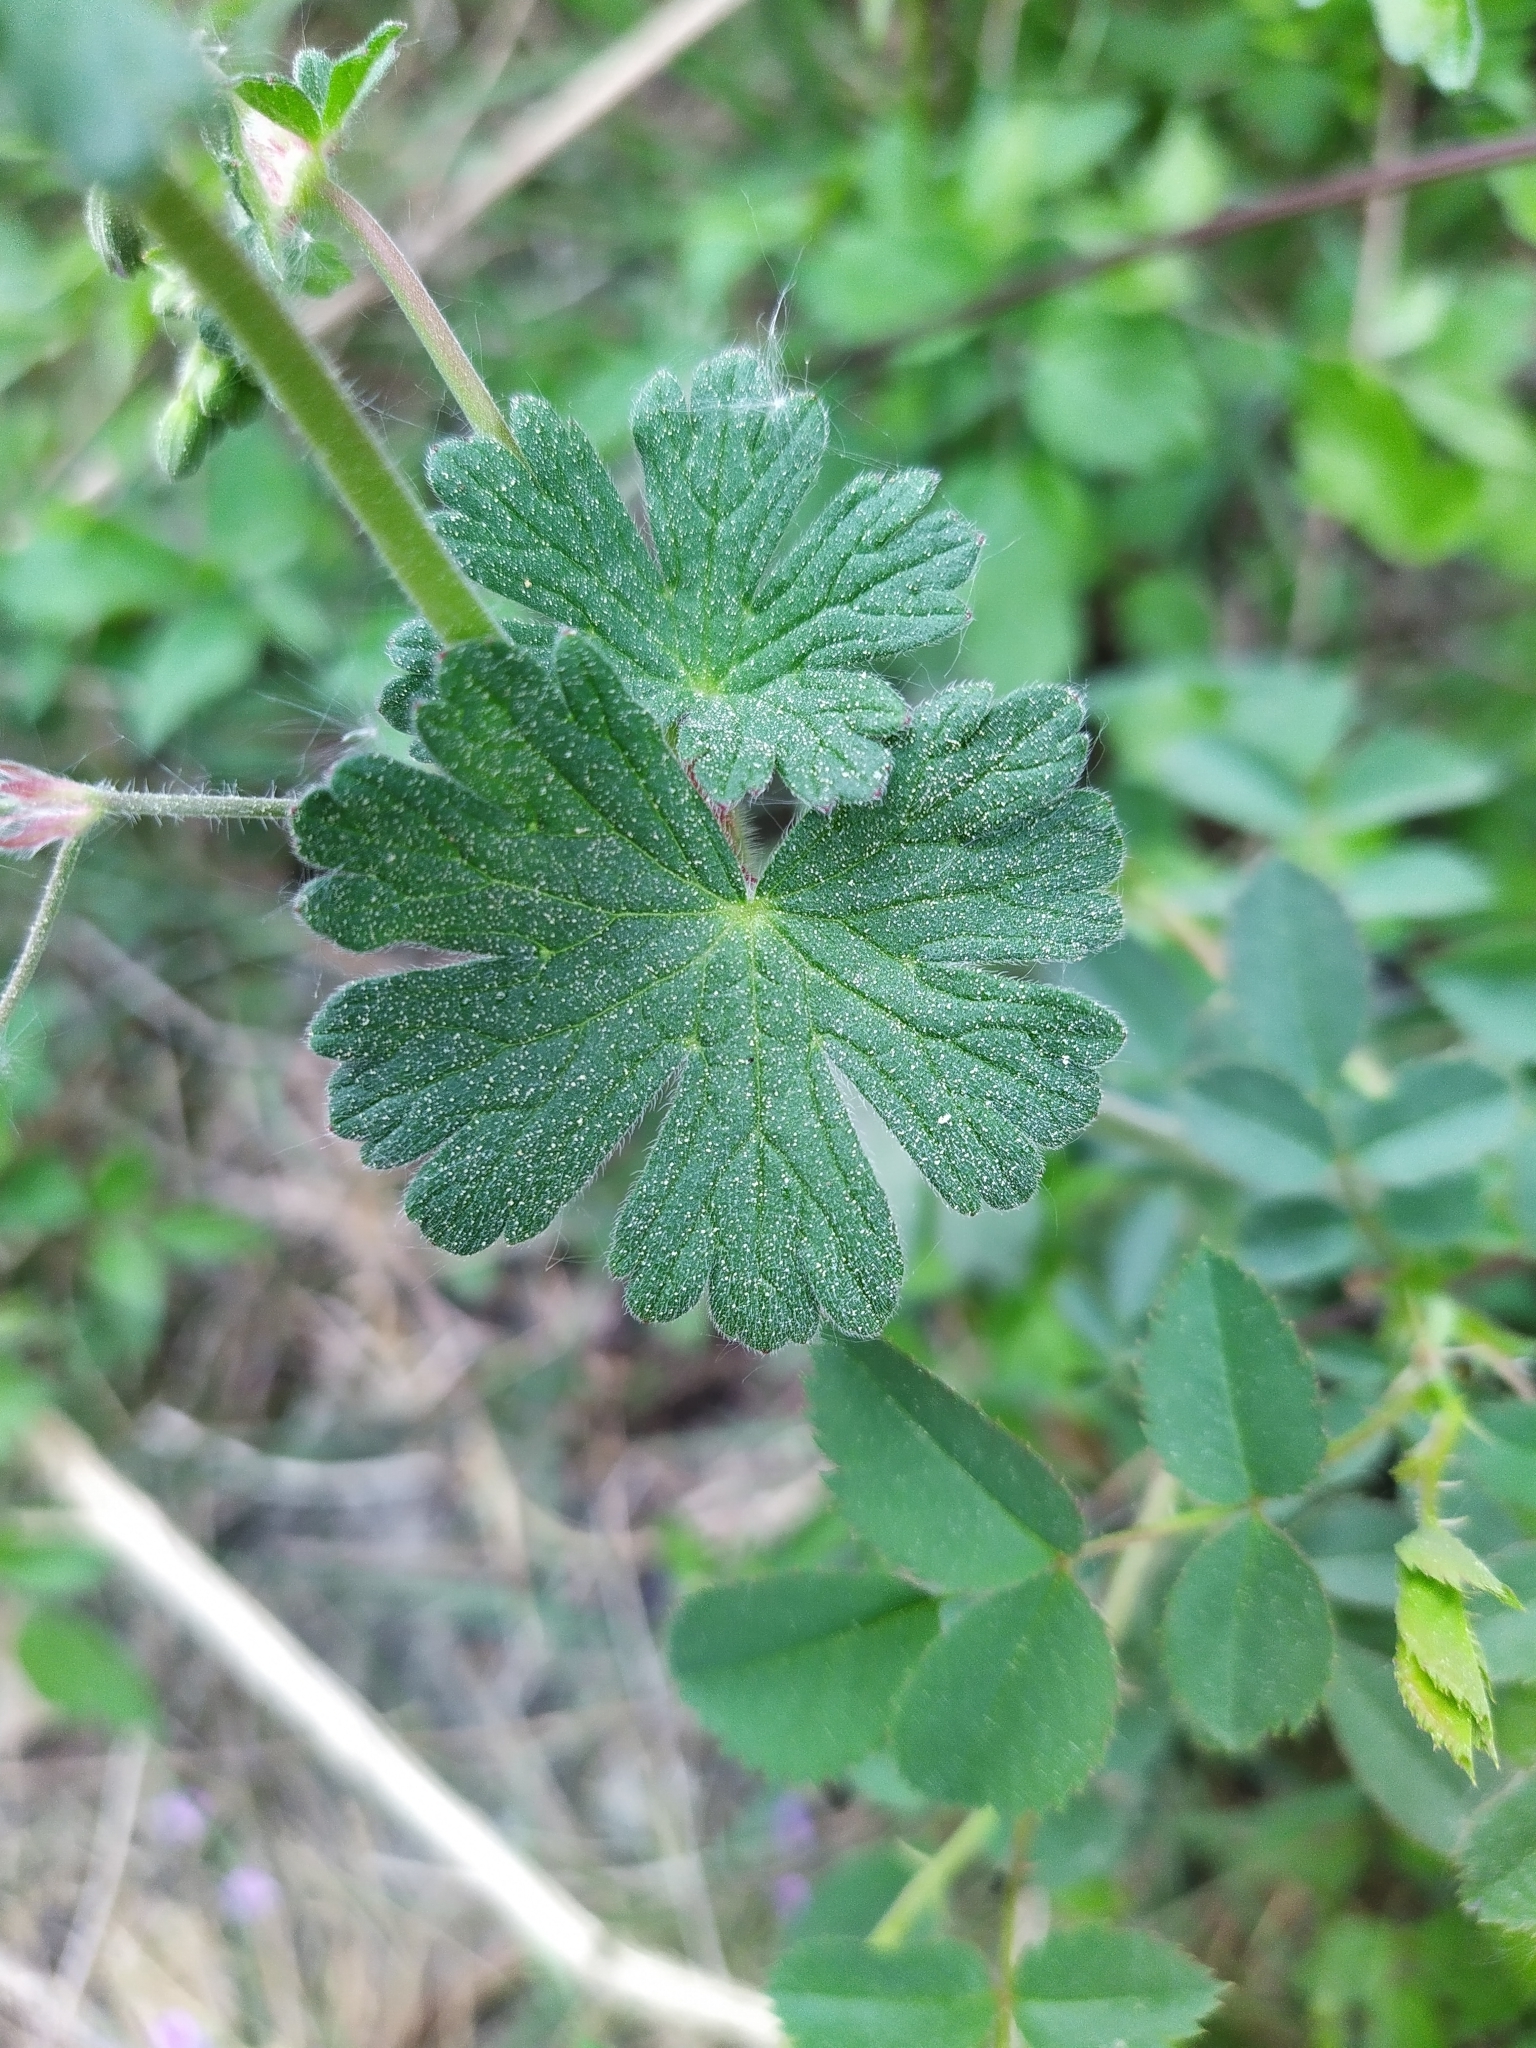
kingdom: Plantae
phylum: Tracheophyta
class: Magnoliopsida
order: Geraniales
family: Geraniaceae
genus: Geranium
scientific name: Geranium pyrenaicum
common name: Hedgerow crane's-bill
